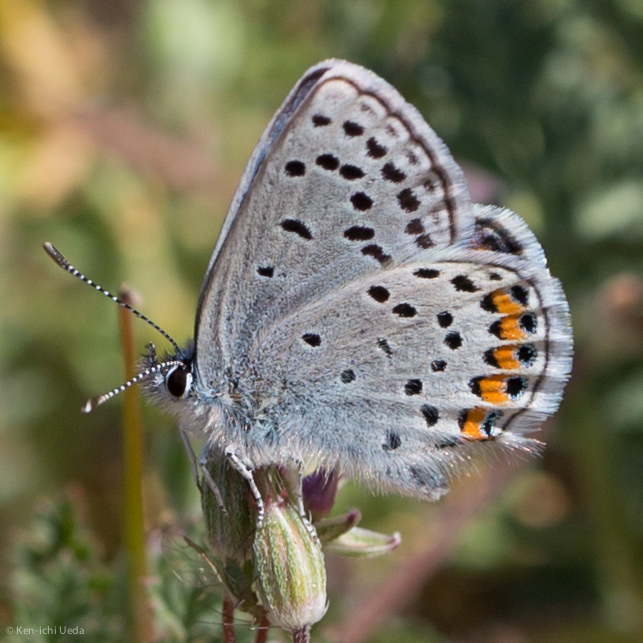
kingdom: Animalia
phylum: Arthropoda
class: Insecta
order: Lepidoptera
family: Lycaenidae
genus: Icaricia
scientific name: Icaricia acmon
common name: Acmon blue
